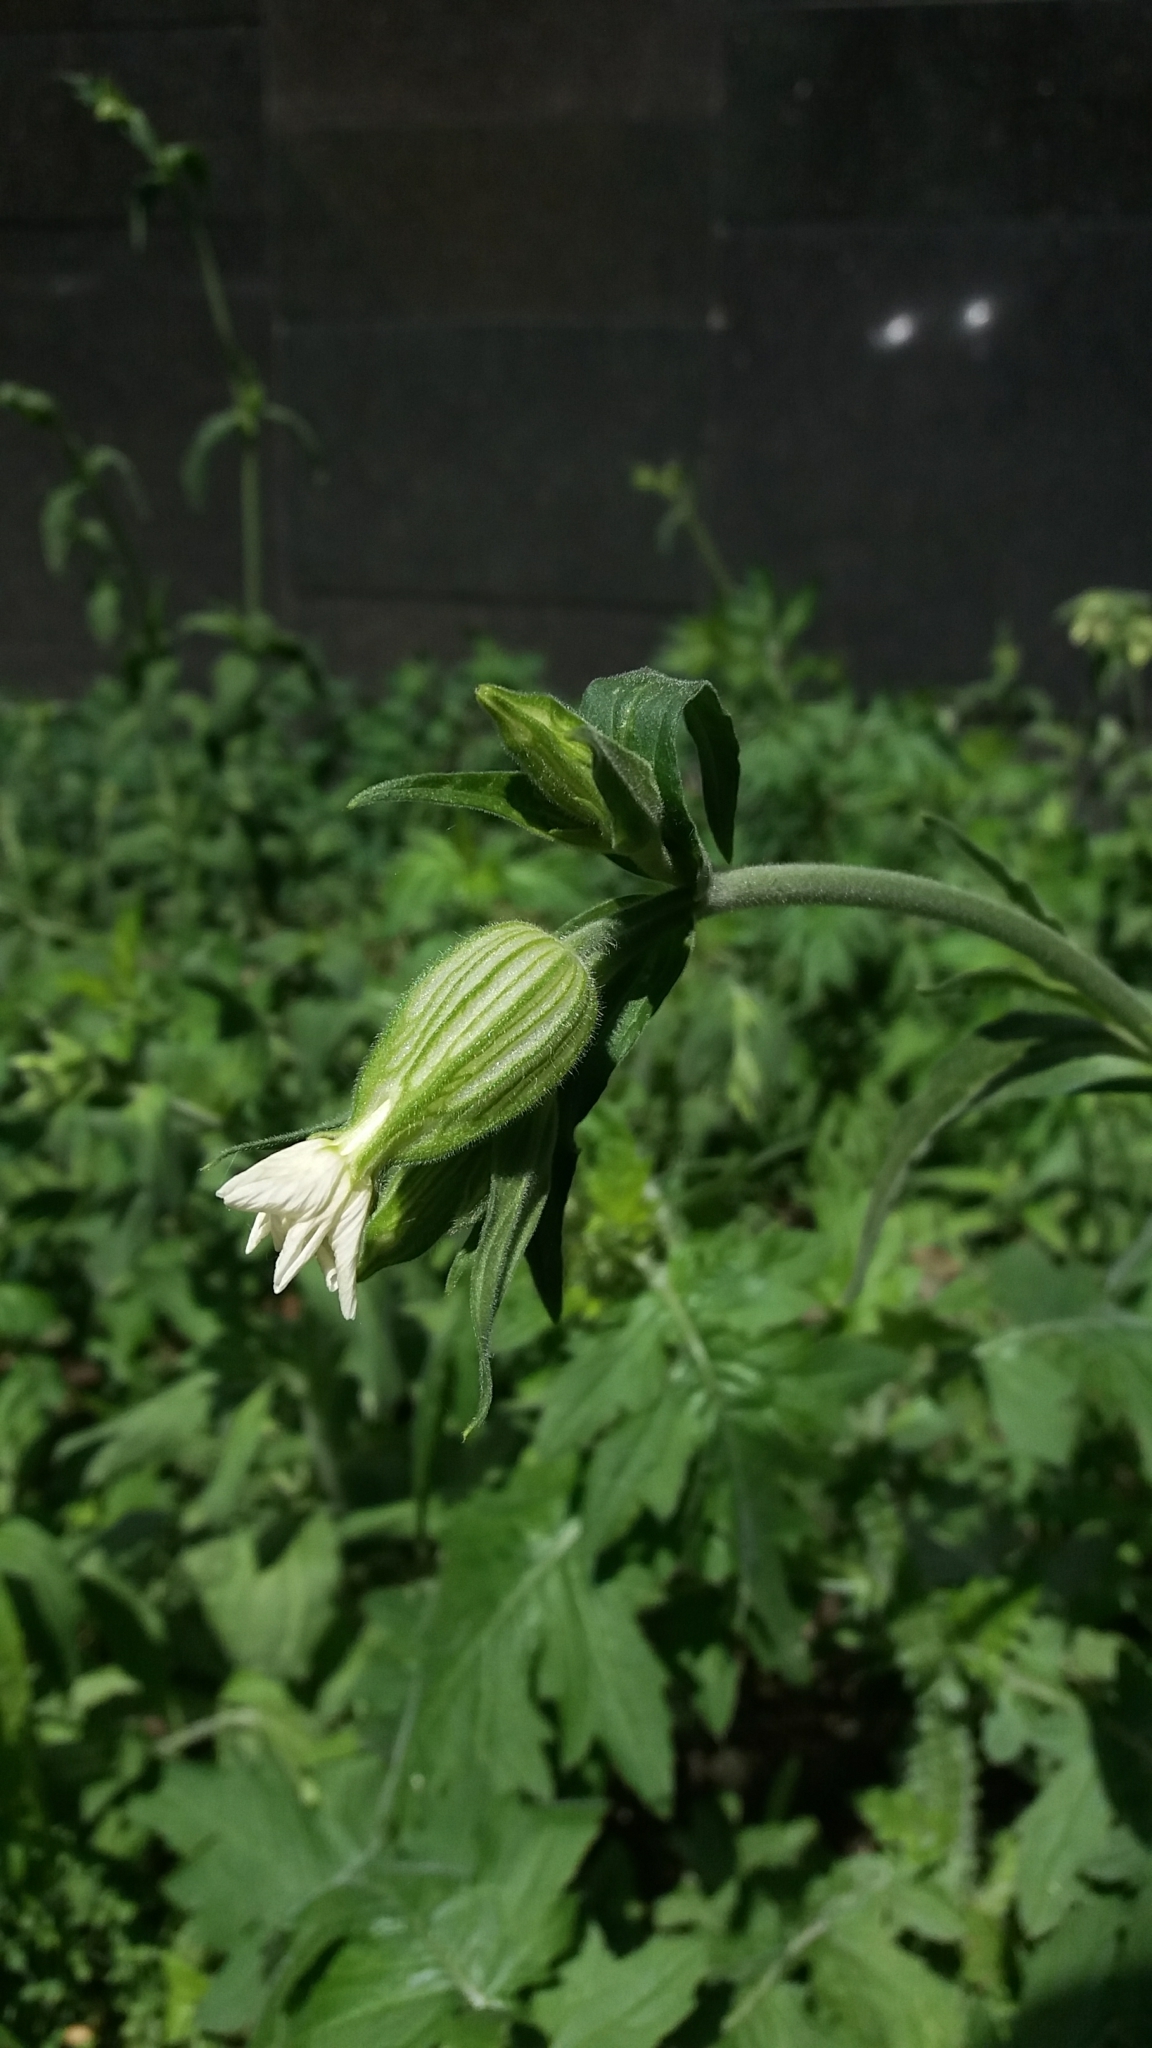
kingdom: Plantae
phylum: Tracheophyta
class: Magnoliopsida
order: Caryophyllales
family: Caryophyllaceae
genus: Silene
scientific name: Silene latifolia
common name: White campion
